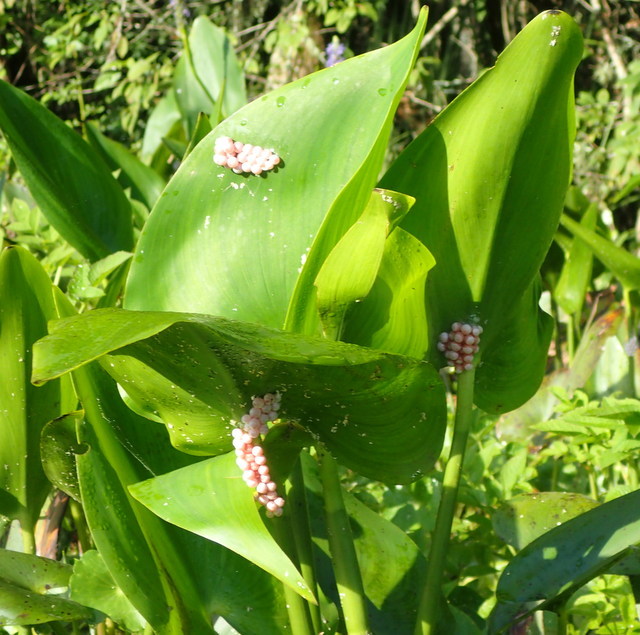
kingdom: Animalia
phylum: Mollusca
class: Gastropoda
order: Architaenioglossa
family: Ampullariidae
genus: Pomacea
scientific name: Pomacea paludosa
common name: Florida applesnail
